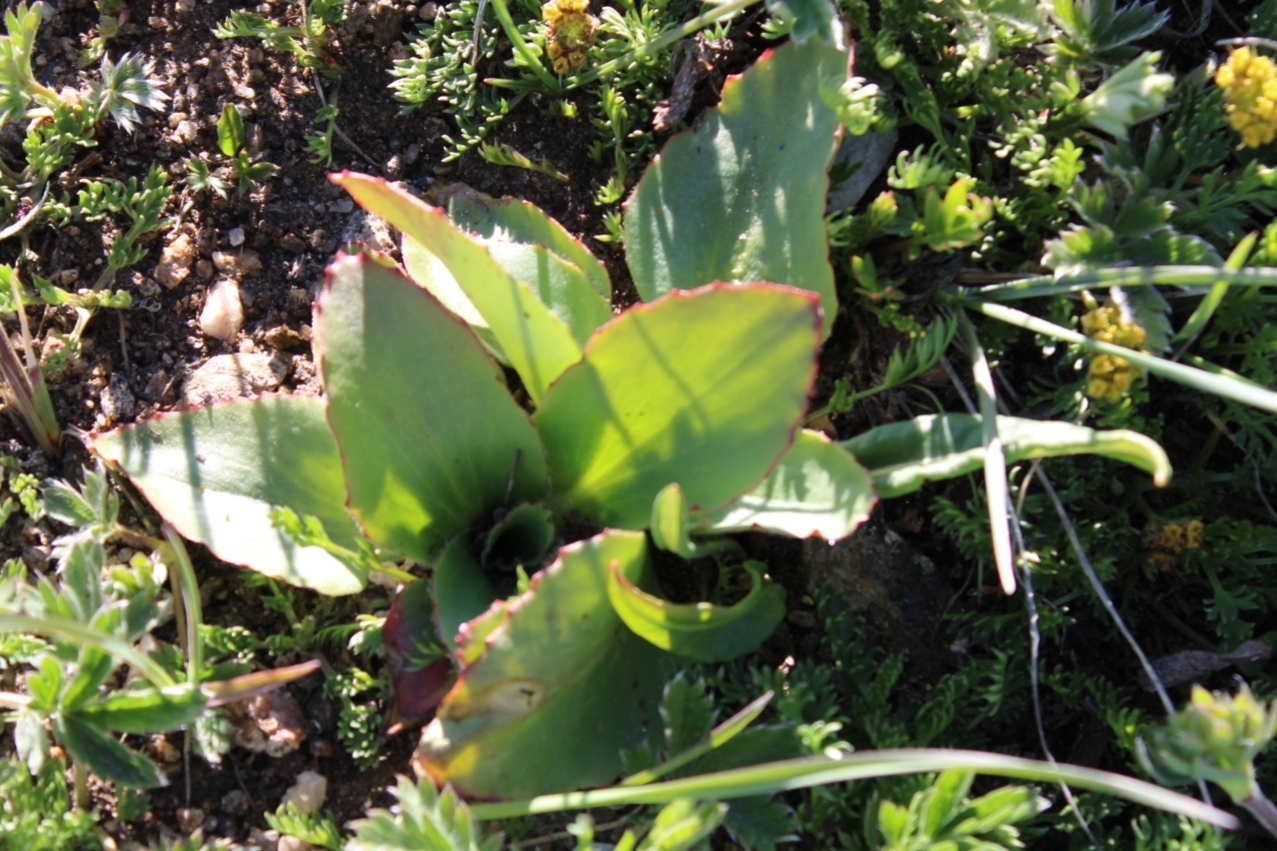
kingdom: Plantae
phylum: Tracheophyta
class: Magnoliopsida
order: Saxifragales
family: Saxifragaceae
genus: Micranthes
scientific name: Micranthes rhomboidea
